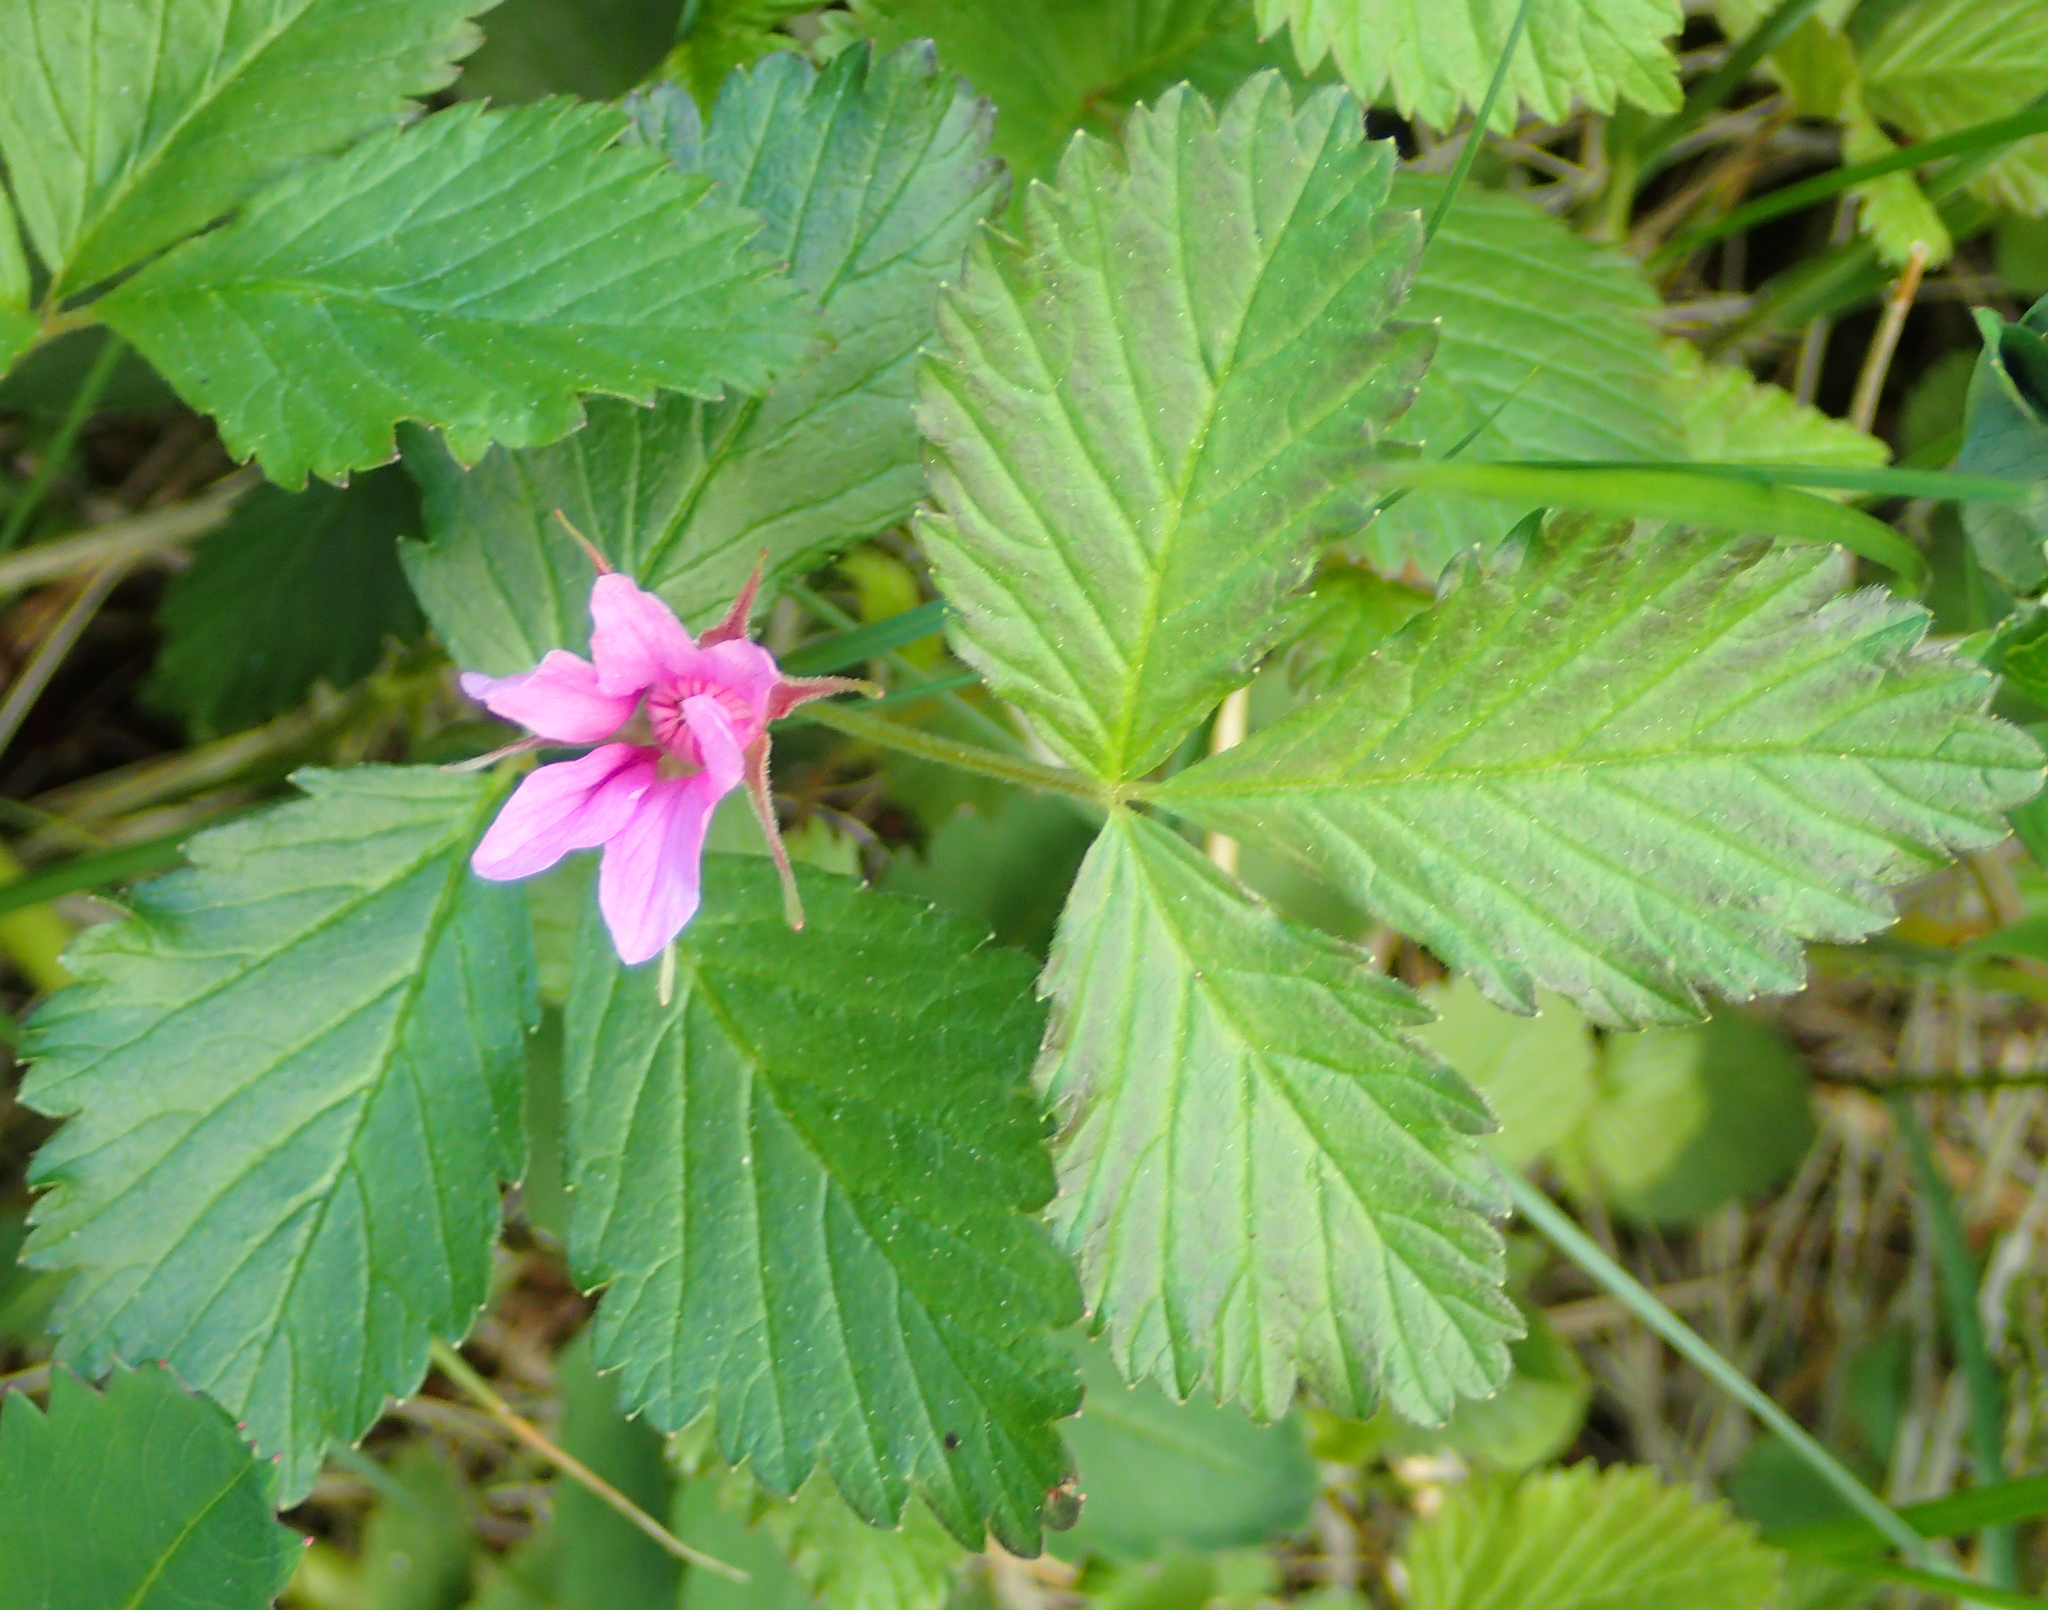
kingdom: Plantae
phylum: Tracheophyta
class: Magnoliopsida
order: Rosales
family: Rosaceae
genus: Rubus
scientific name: Rubus arcticus
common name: Arctic bramble
